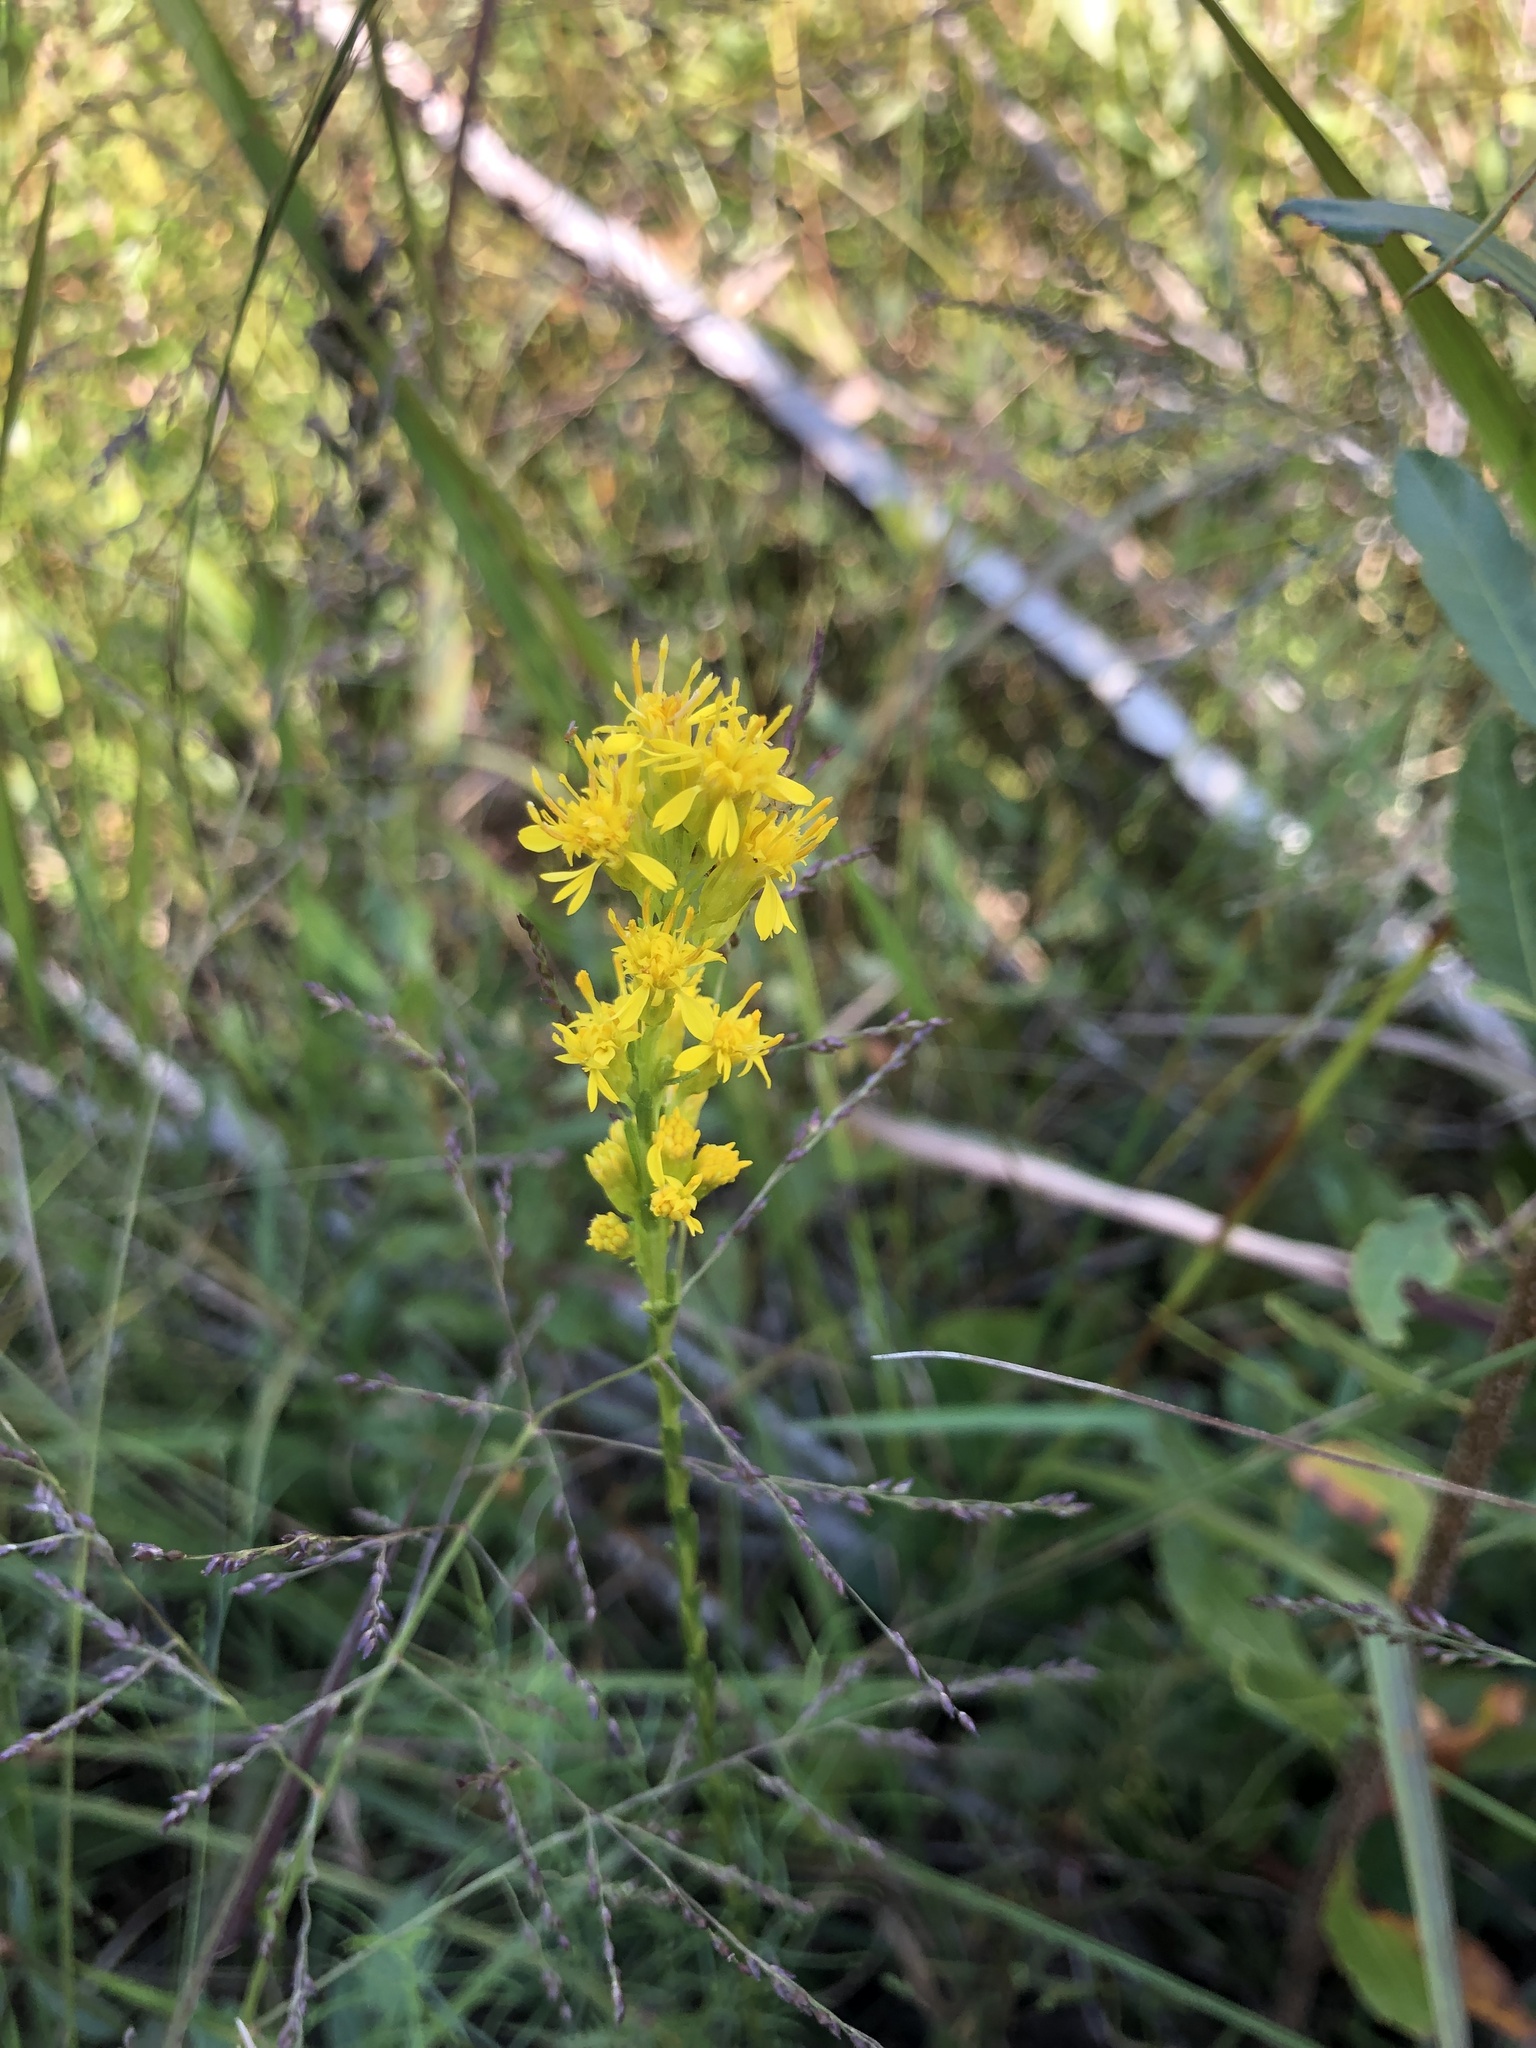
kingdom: Plantae
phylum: Tracheophyta
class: Magnoliopsida
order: Asterales
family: Asteraceae
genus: Solidago
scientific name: Solidago pulchra
